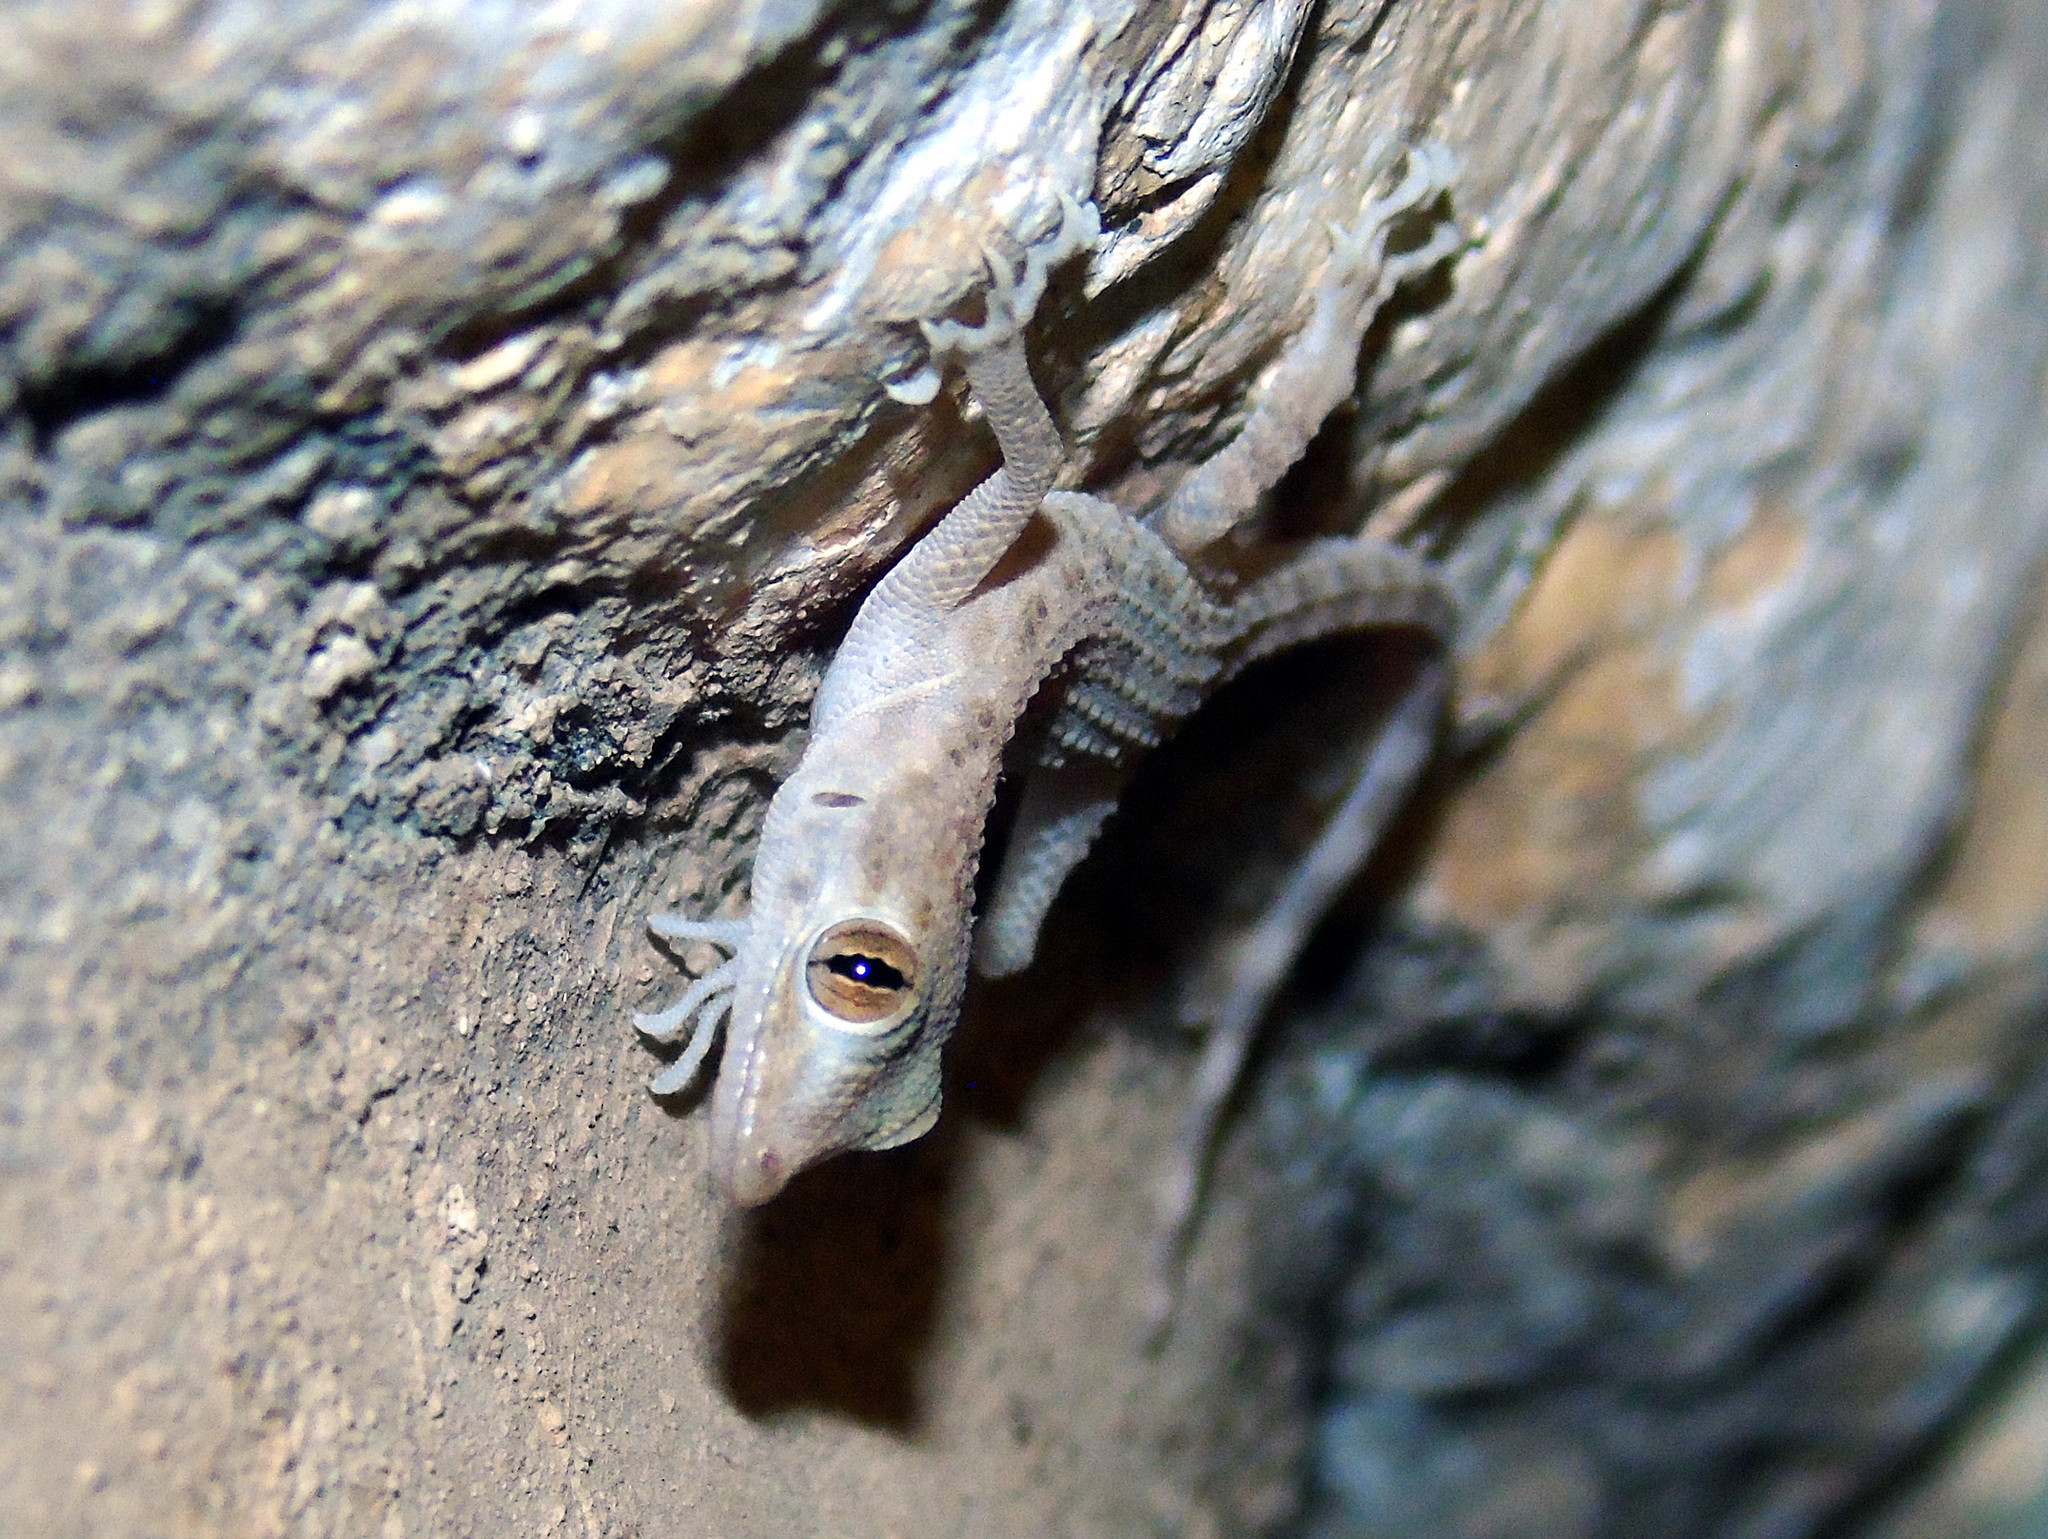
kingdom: Animalia
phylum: Chordata
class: Squamata
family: Gekkonidae
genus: Cyrtopodion
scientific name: Cyrtopodion scabrum
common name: Rough-tailed gecko
